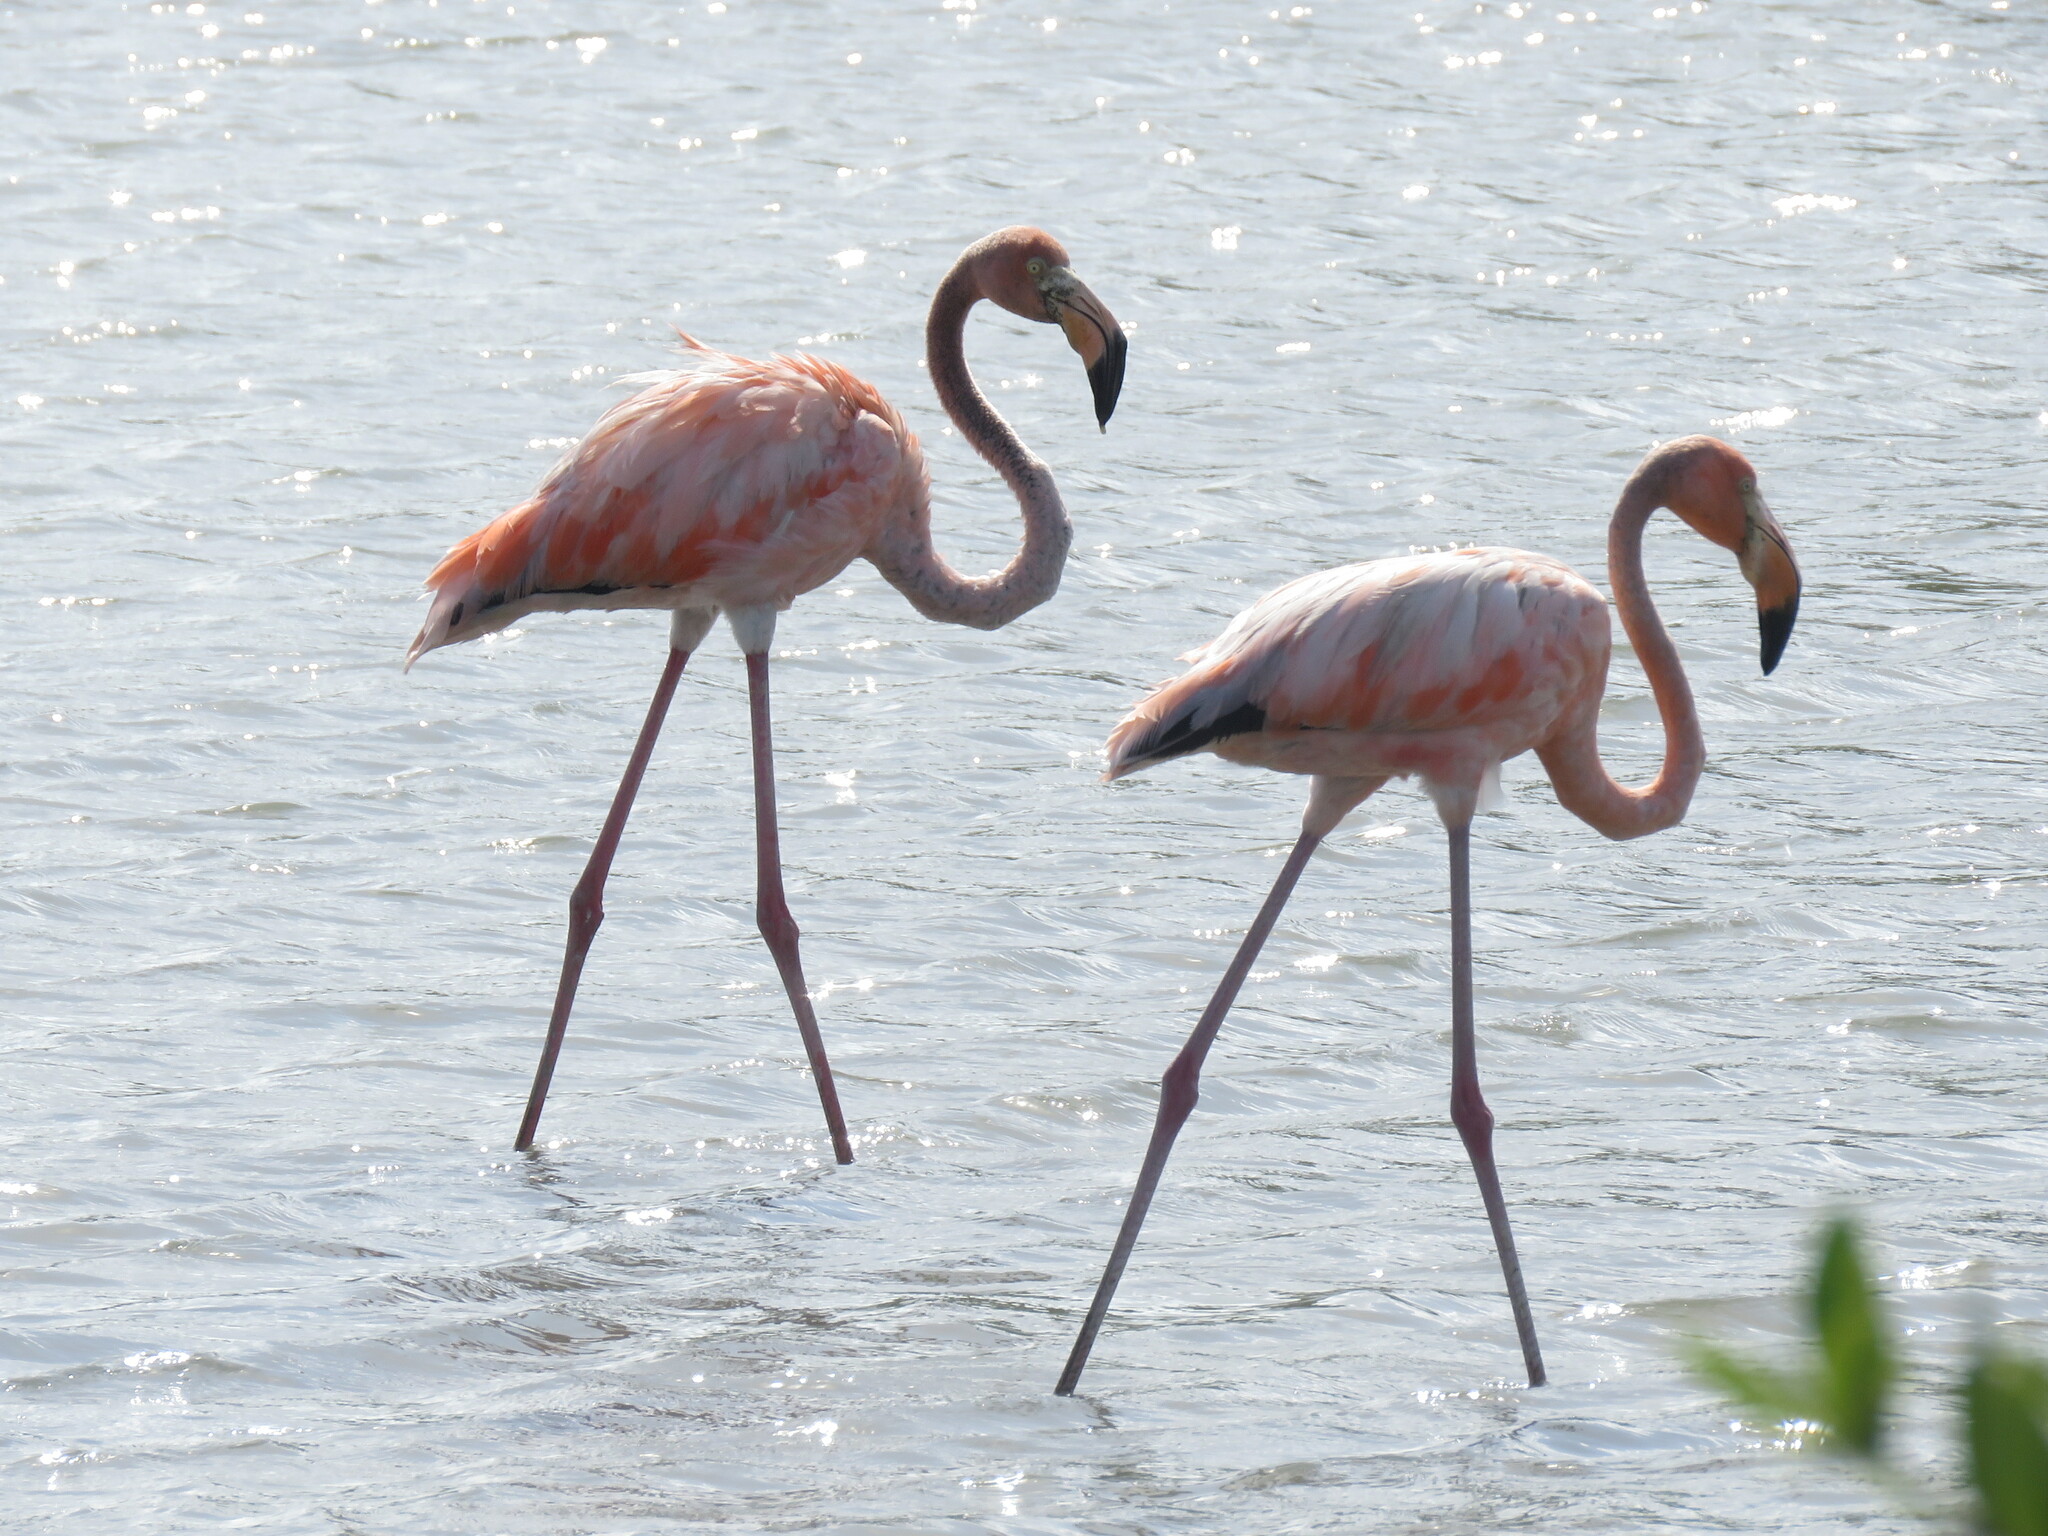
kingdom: Animalia
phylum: Chordata
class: Aves
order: Phoenicopteriformes
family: Phoenicopteridae
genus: Phoenicopterus
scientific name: Phoenicopterus ruber
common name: American flamingo
